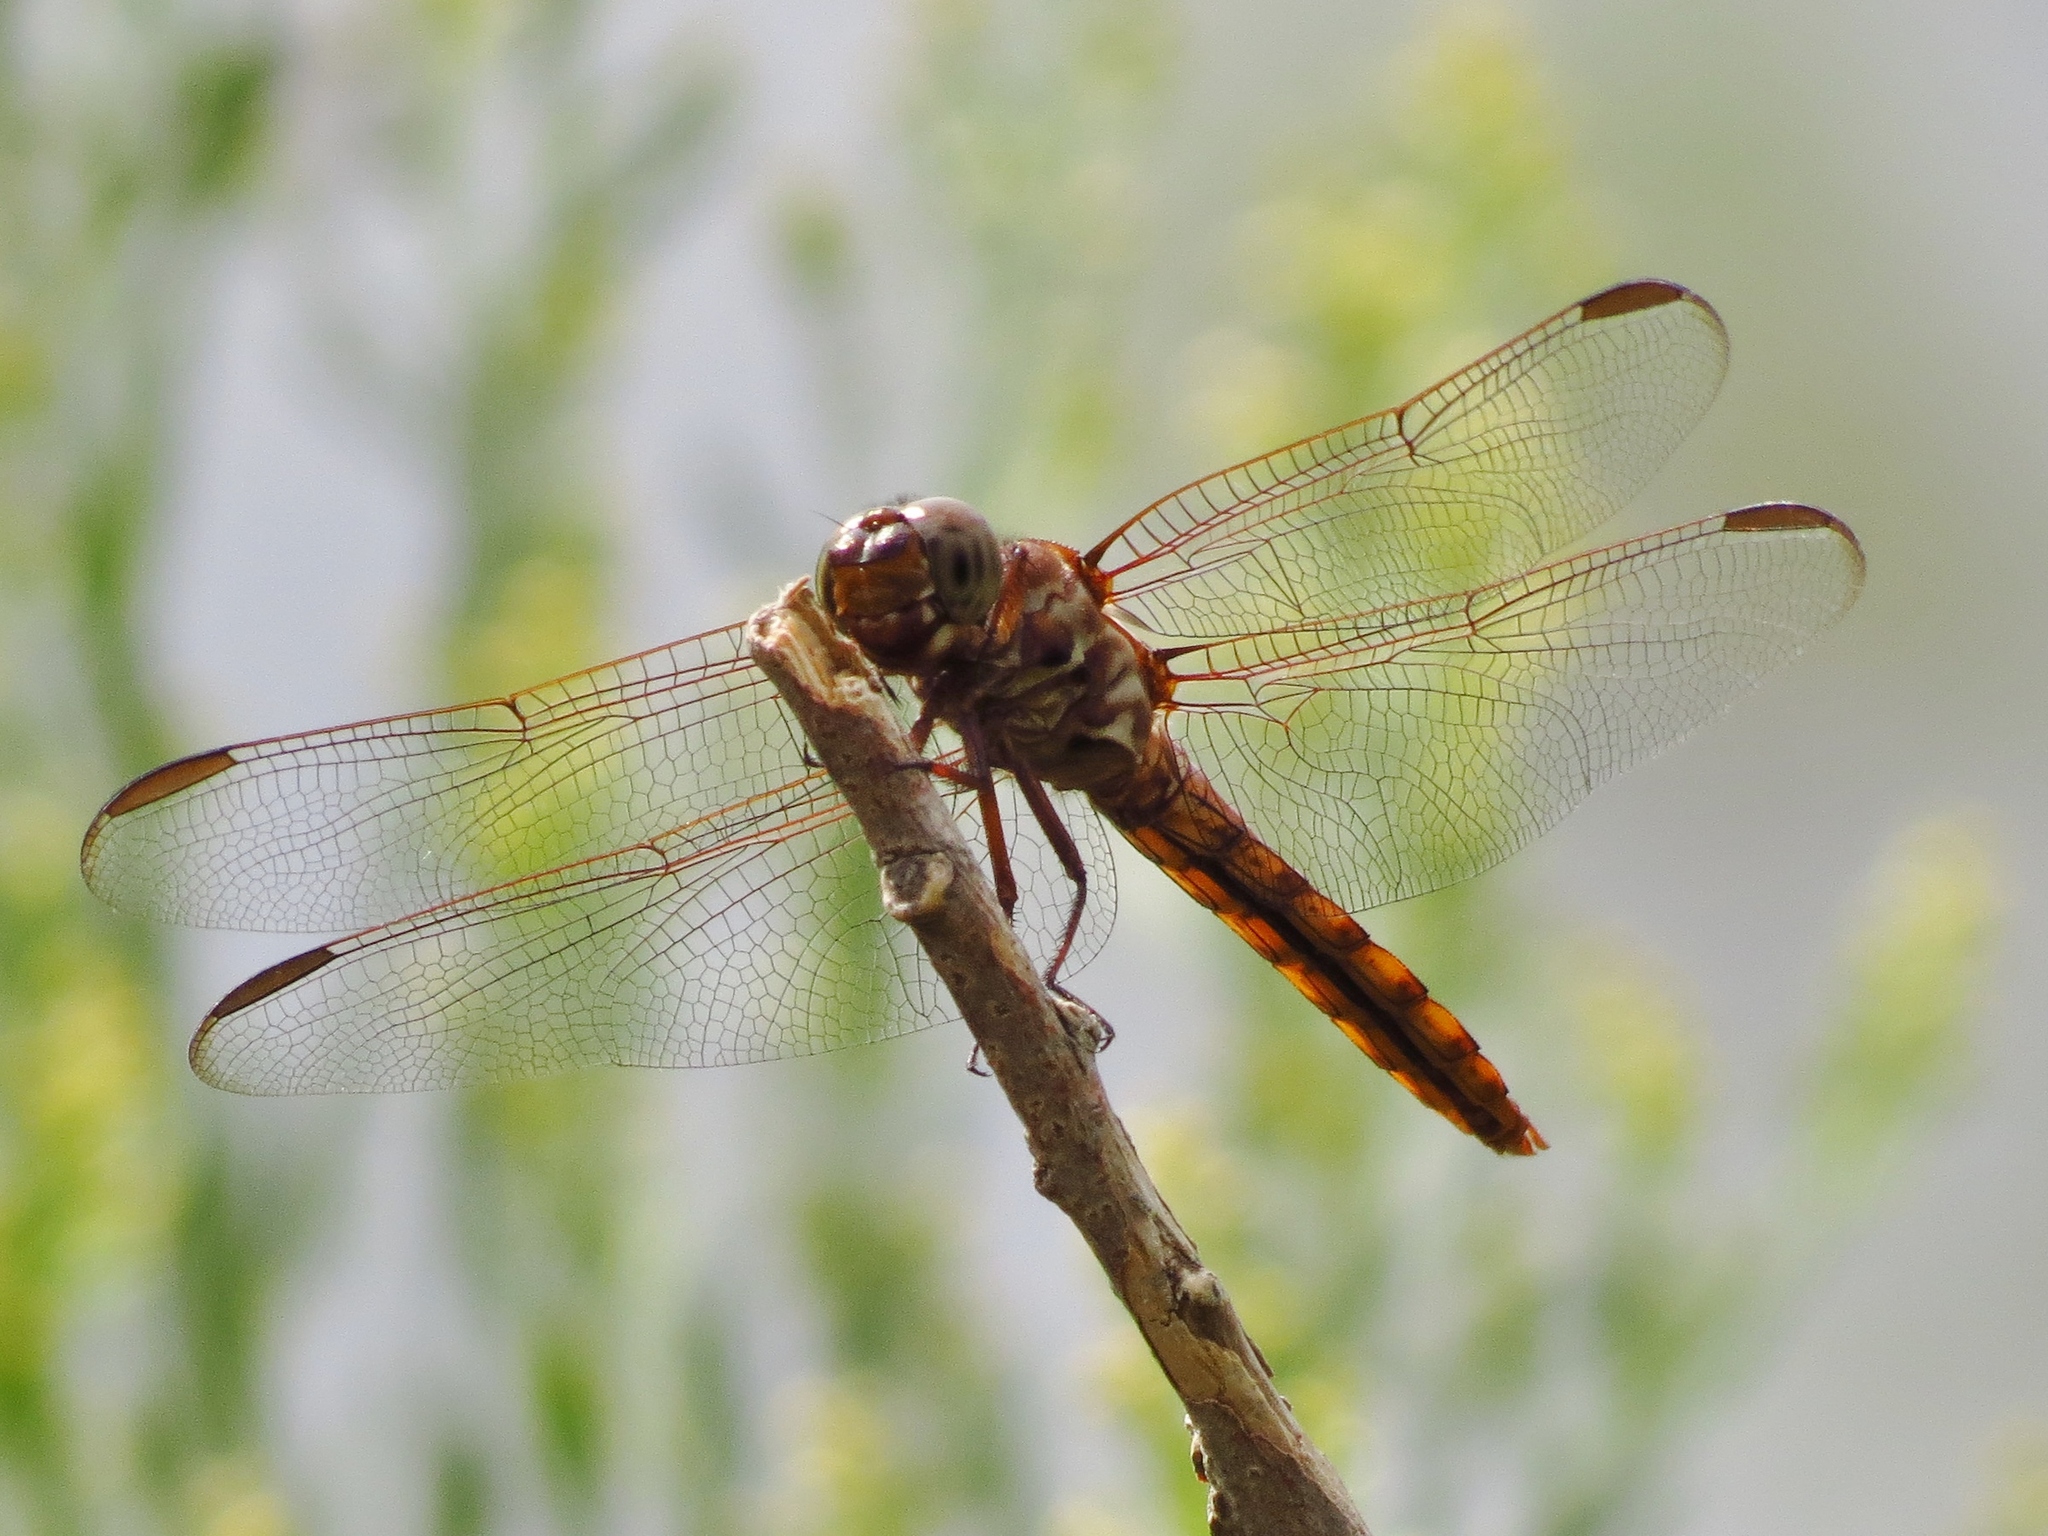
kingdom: Animalia
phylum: Arthropoda
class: Insecta
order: Odonata
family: Libellulidae
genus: Orthemis
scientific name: Orthemis ferruginea
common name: Roseate skimmer
